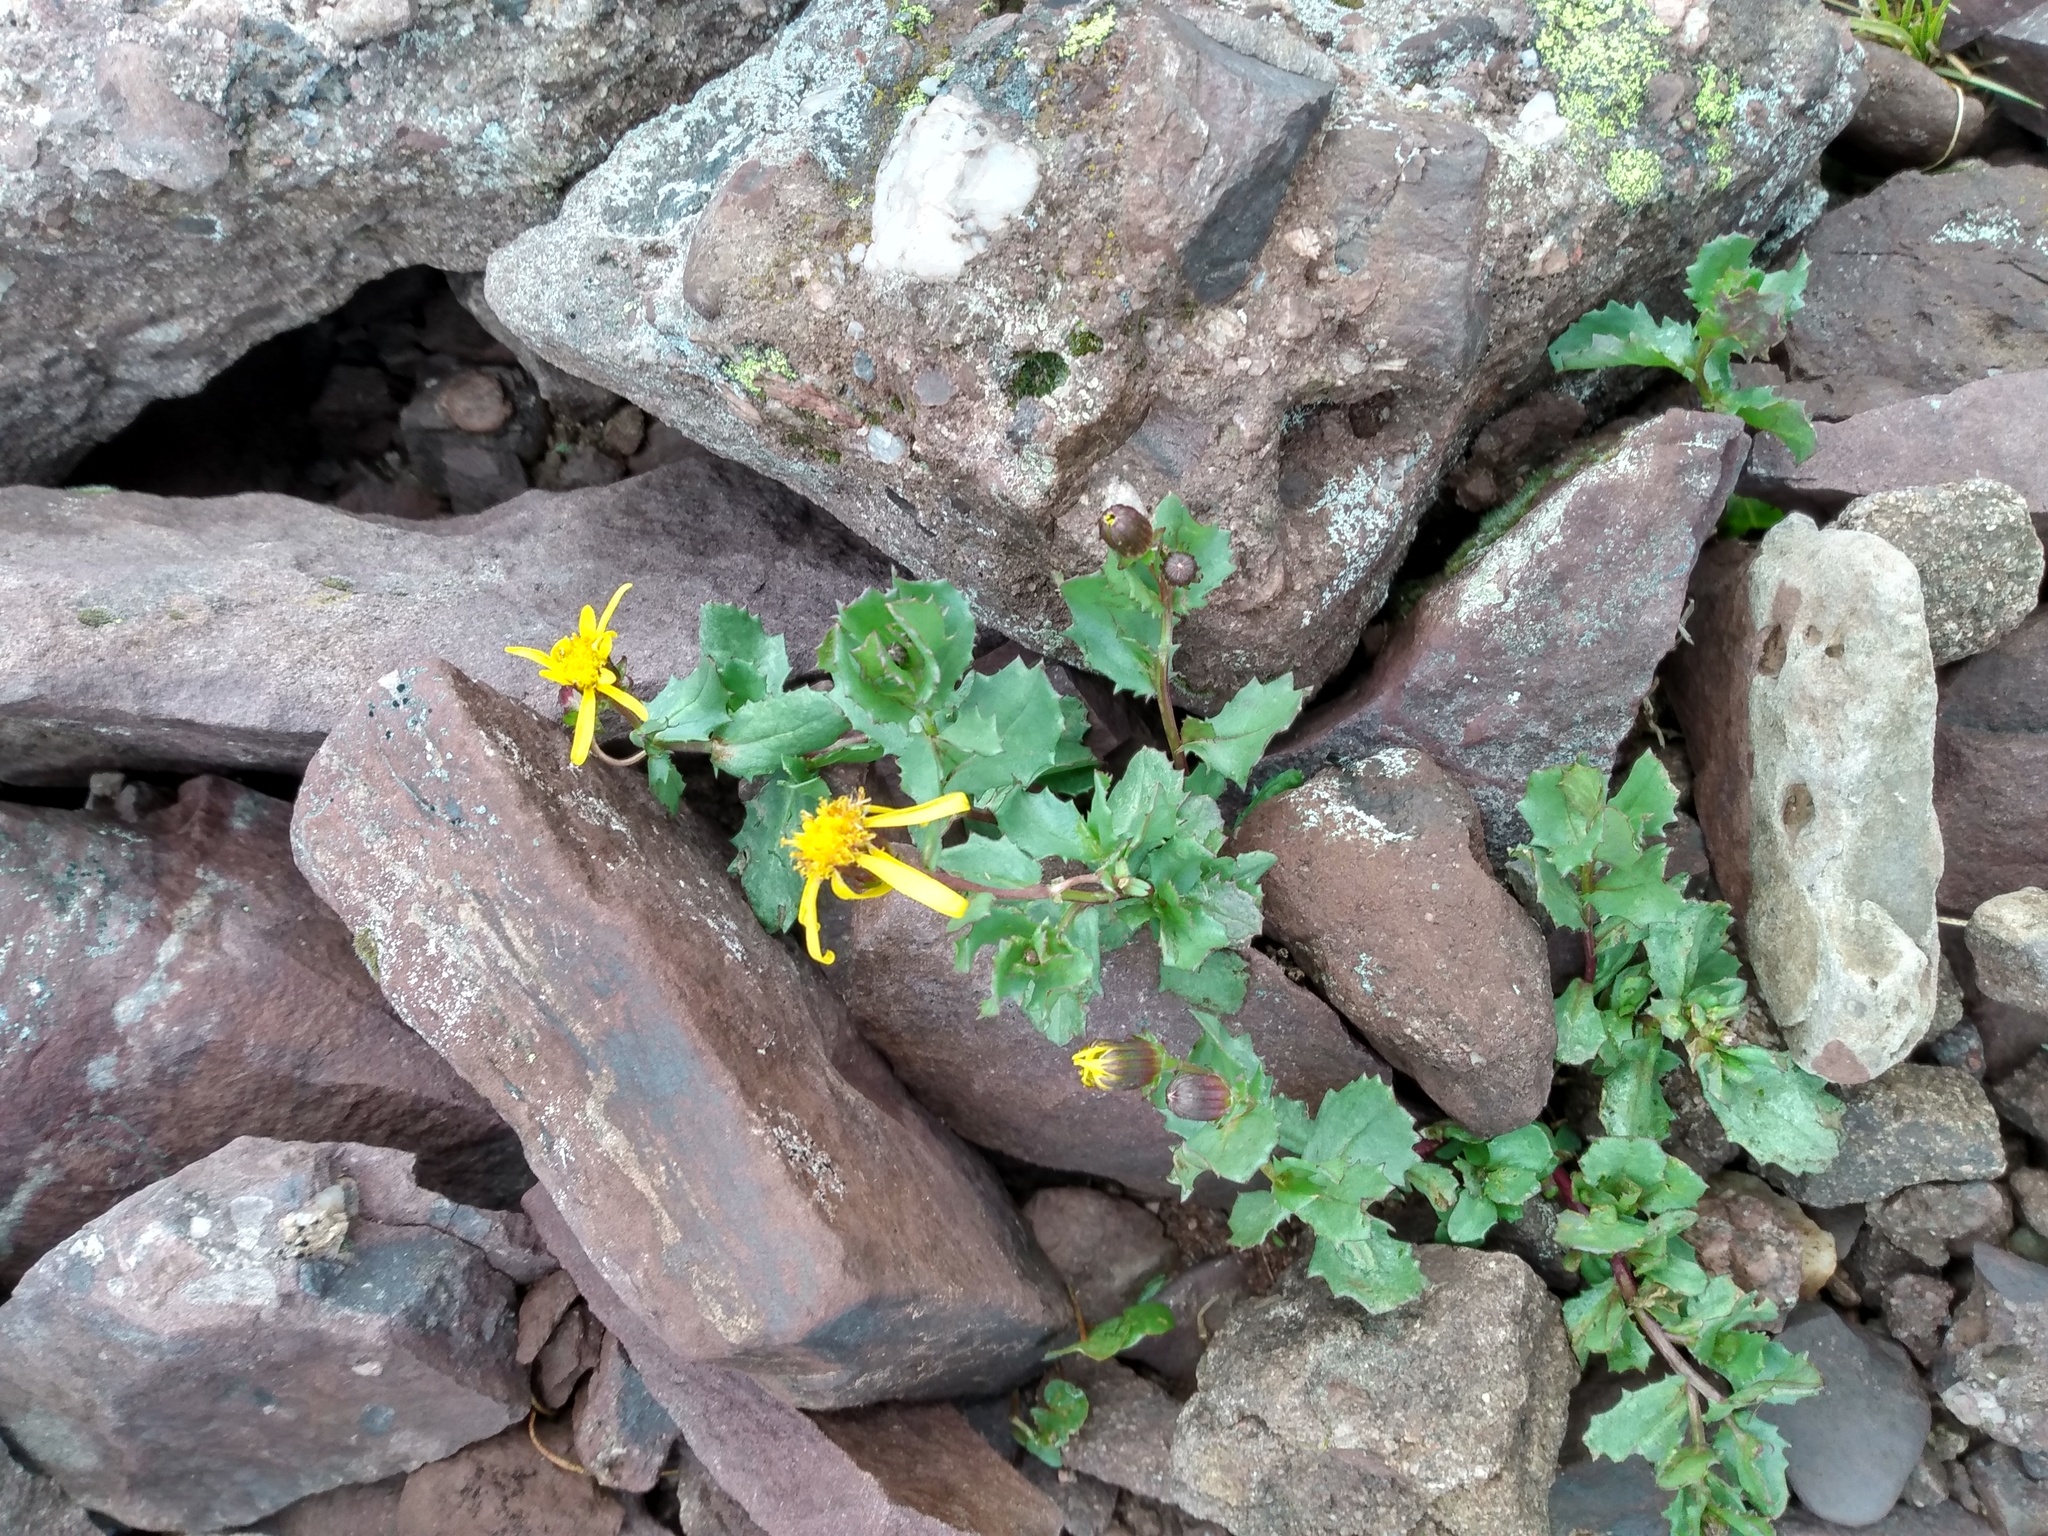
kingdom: Plantae
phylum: Tracheophyta
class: Magnoliopsida
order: Asterales
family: Asteraceae
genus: Senecio
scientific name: Senecio fremontii
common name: Fremont's groundsel
